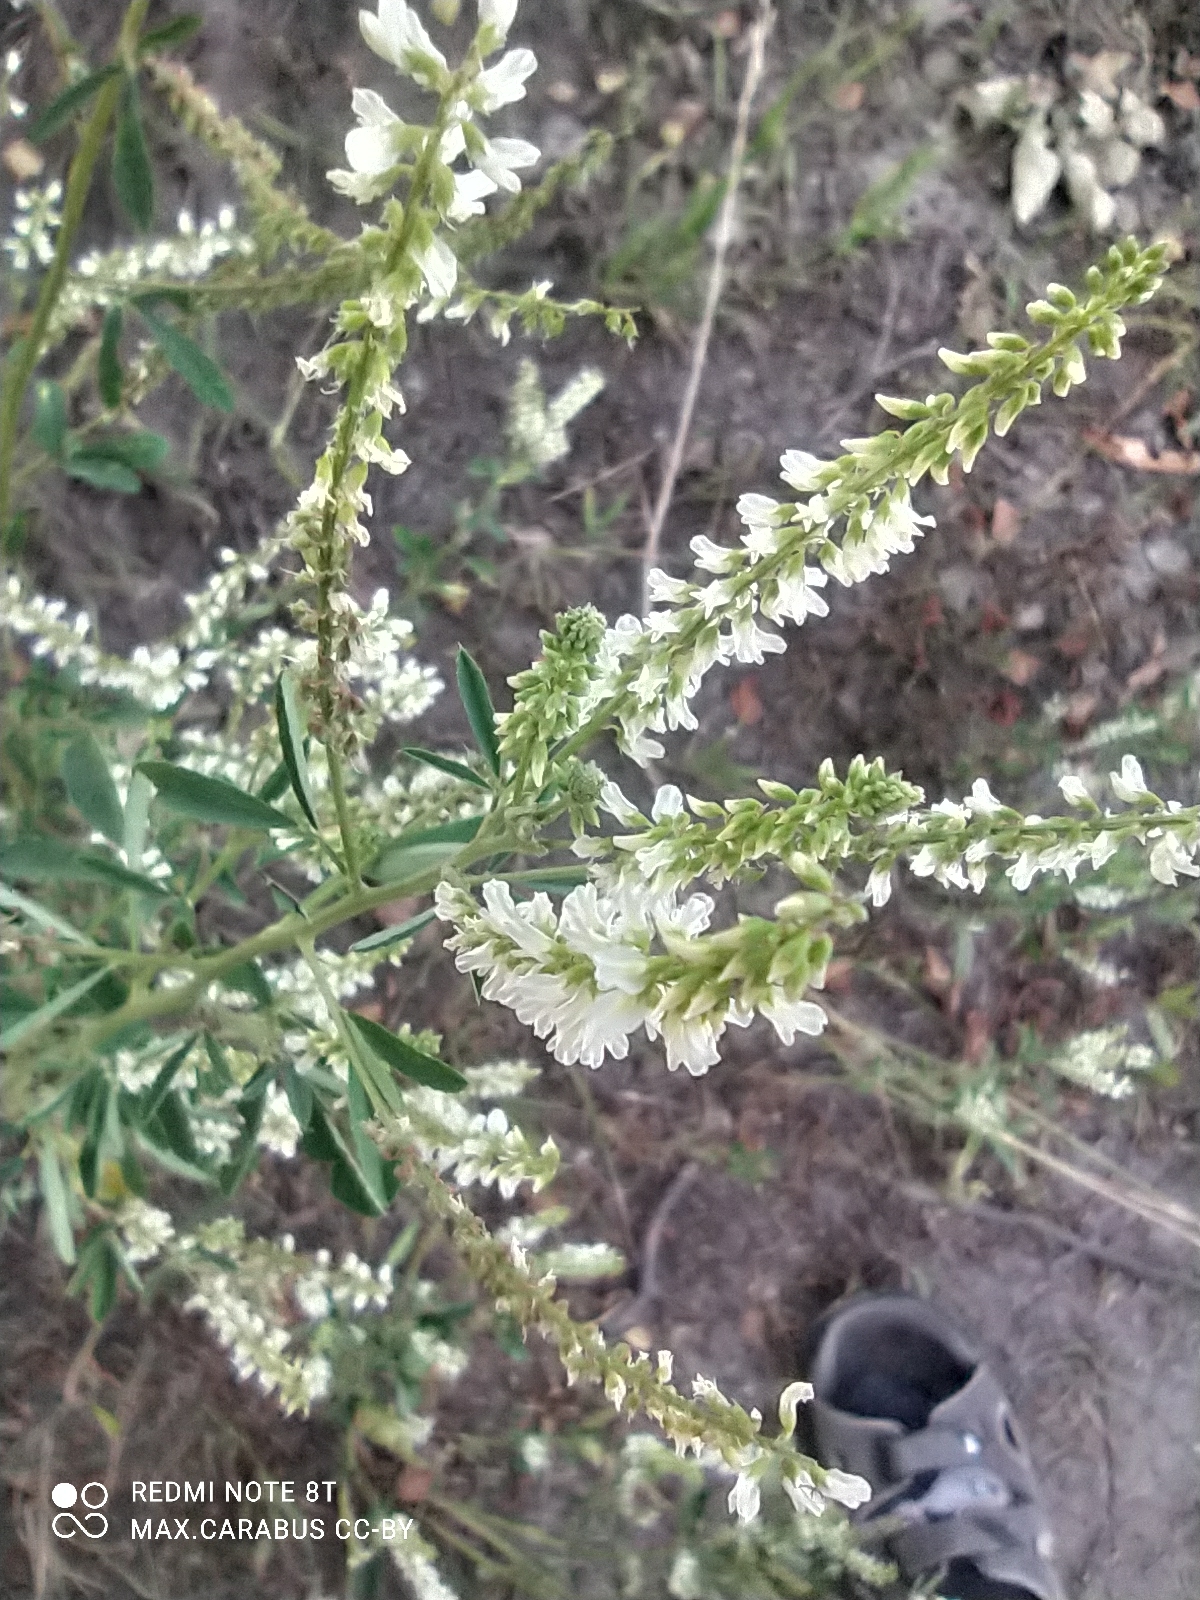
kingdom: Plantae
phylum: Tracheophyta
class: Magnoliopsida
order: Fabales
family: Fabaceae
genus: Melilotus
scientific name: Melilotus albus
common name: White melilot
